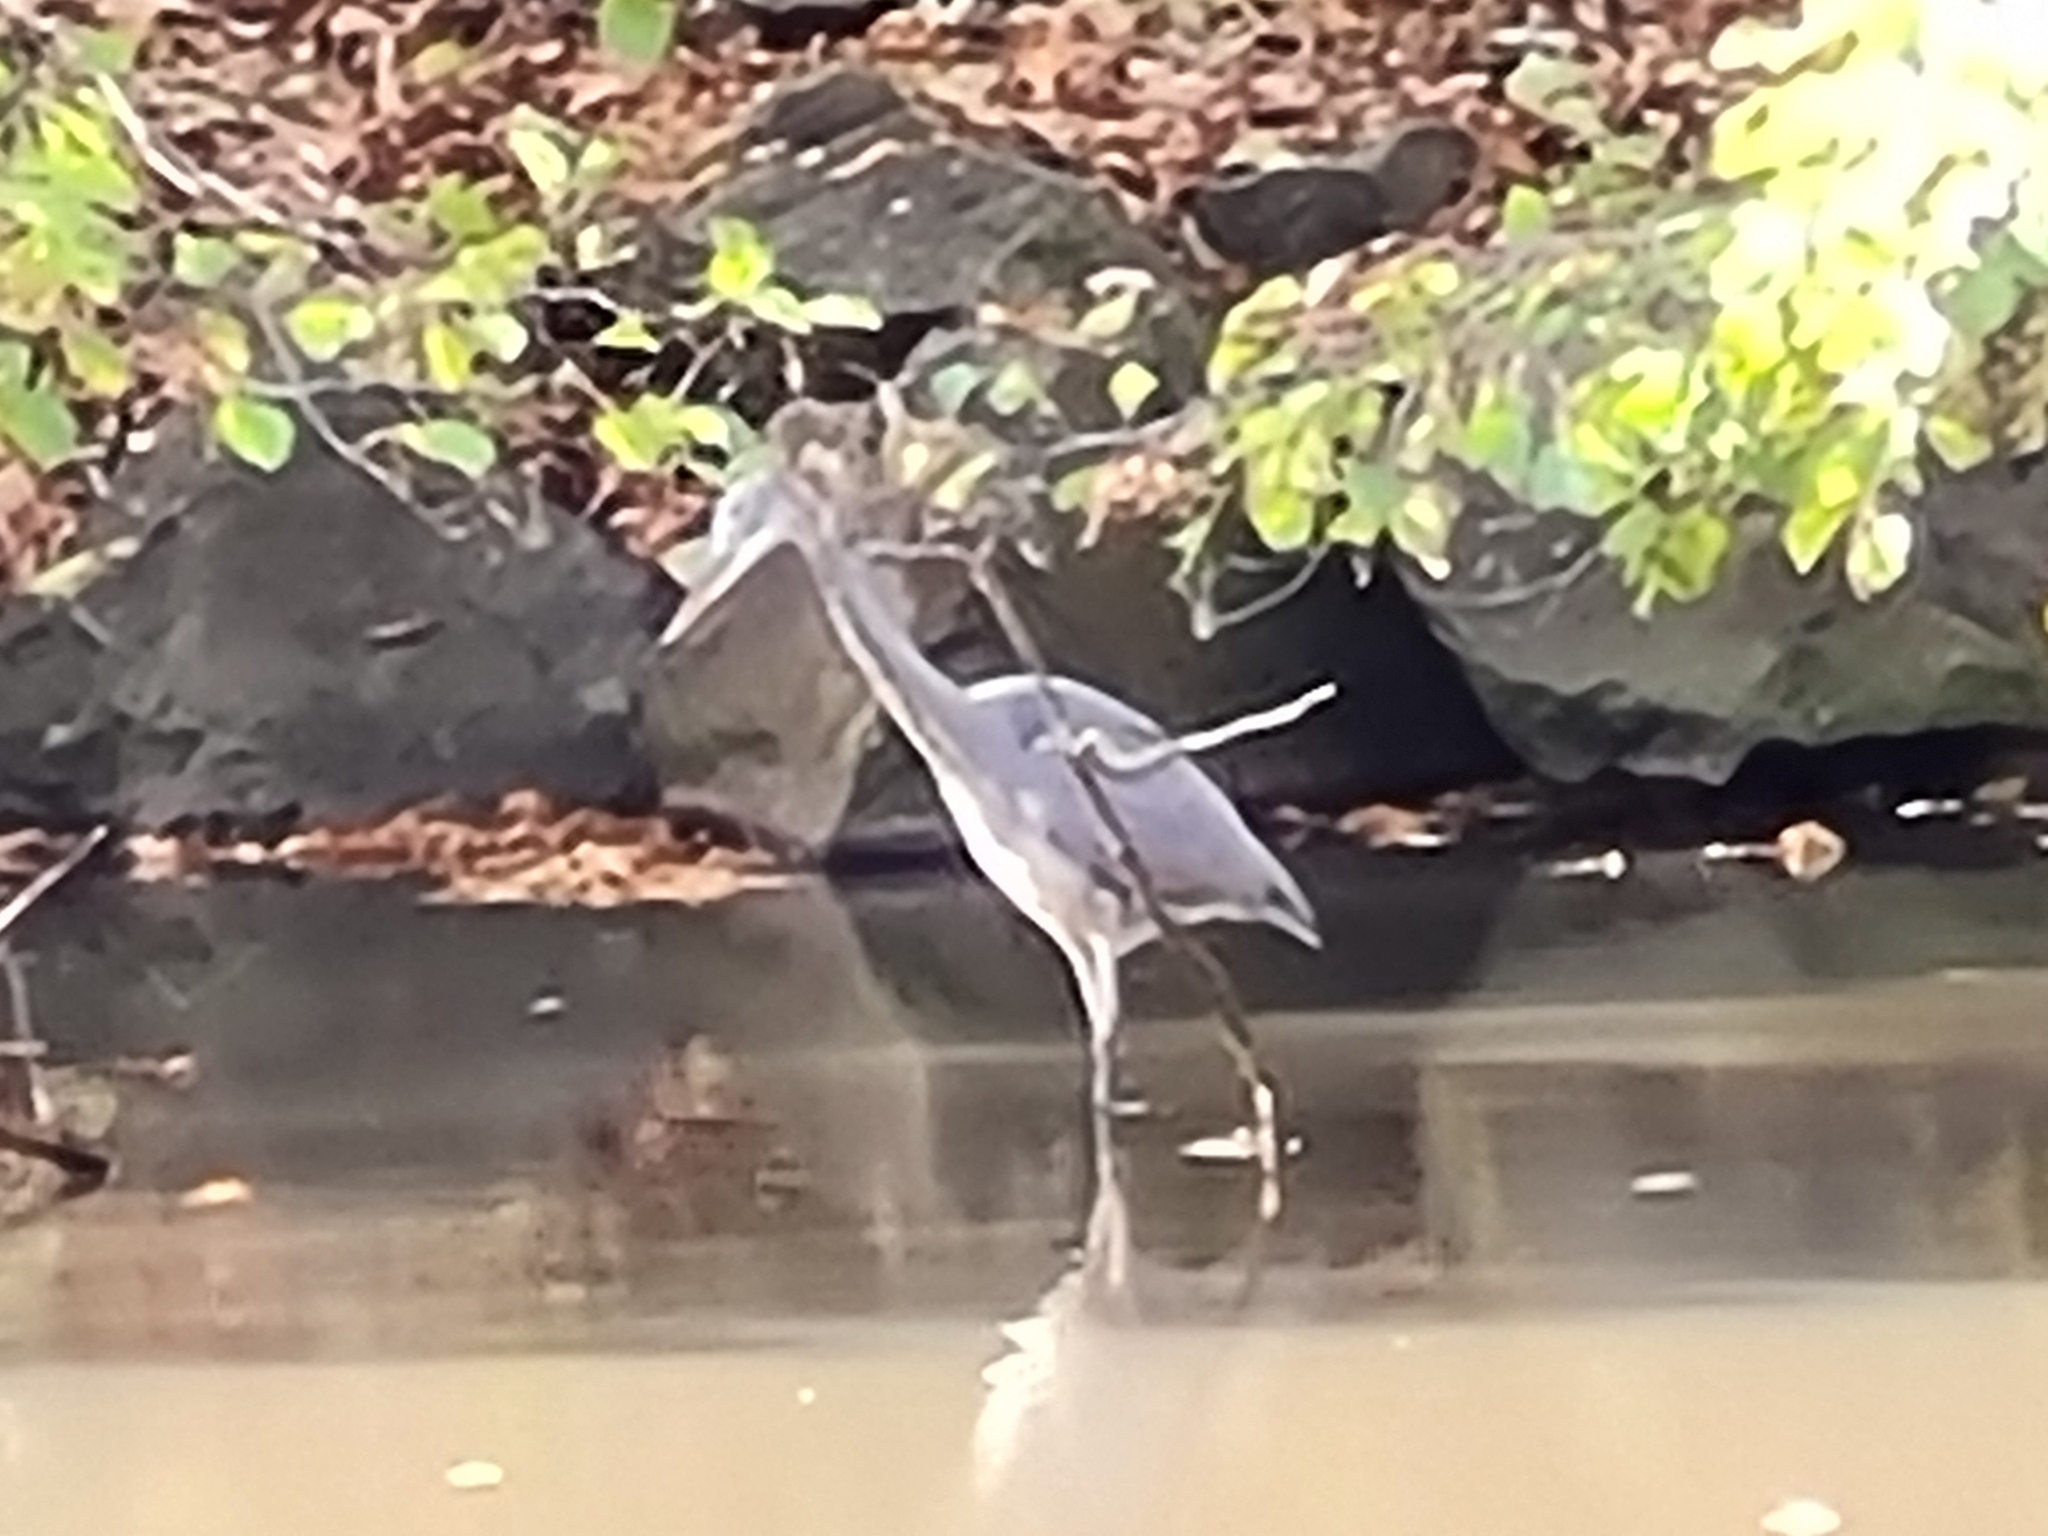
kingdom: Animalia
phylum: Chordata
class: Aves
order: Pelecaniformes
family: Ardeidae
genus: Ardea
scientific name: Ardea cinerea
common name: Grey heron
